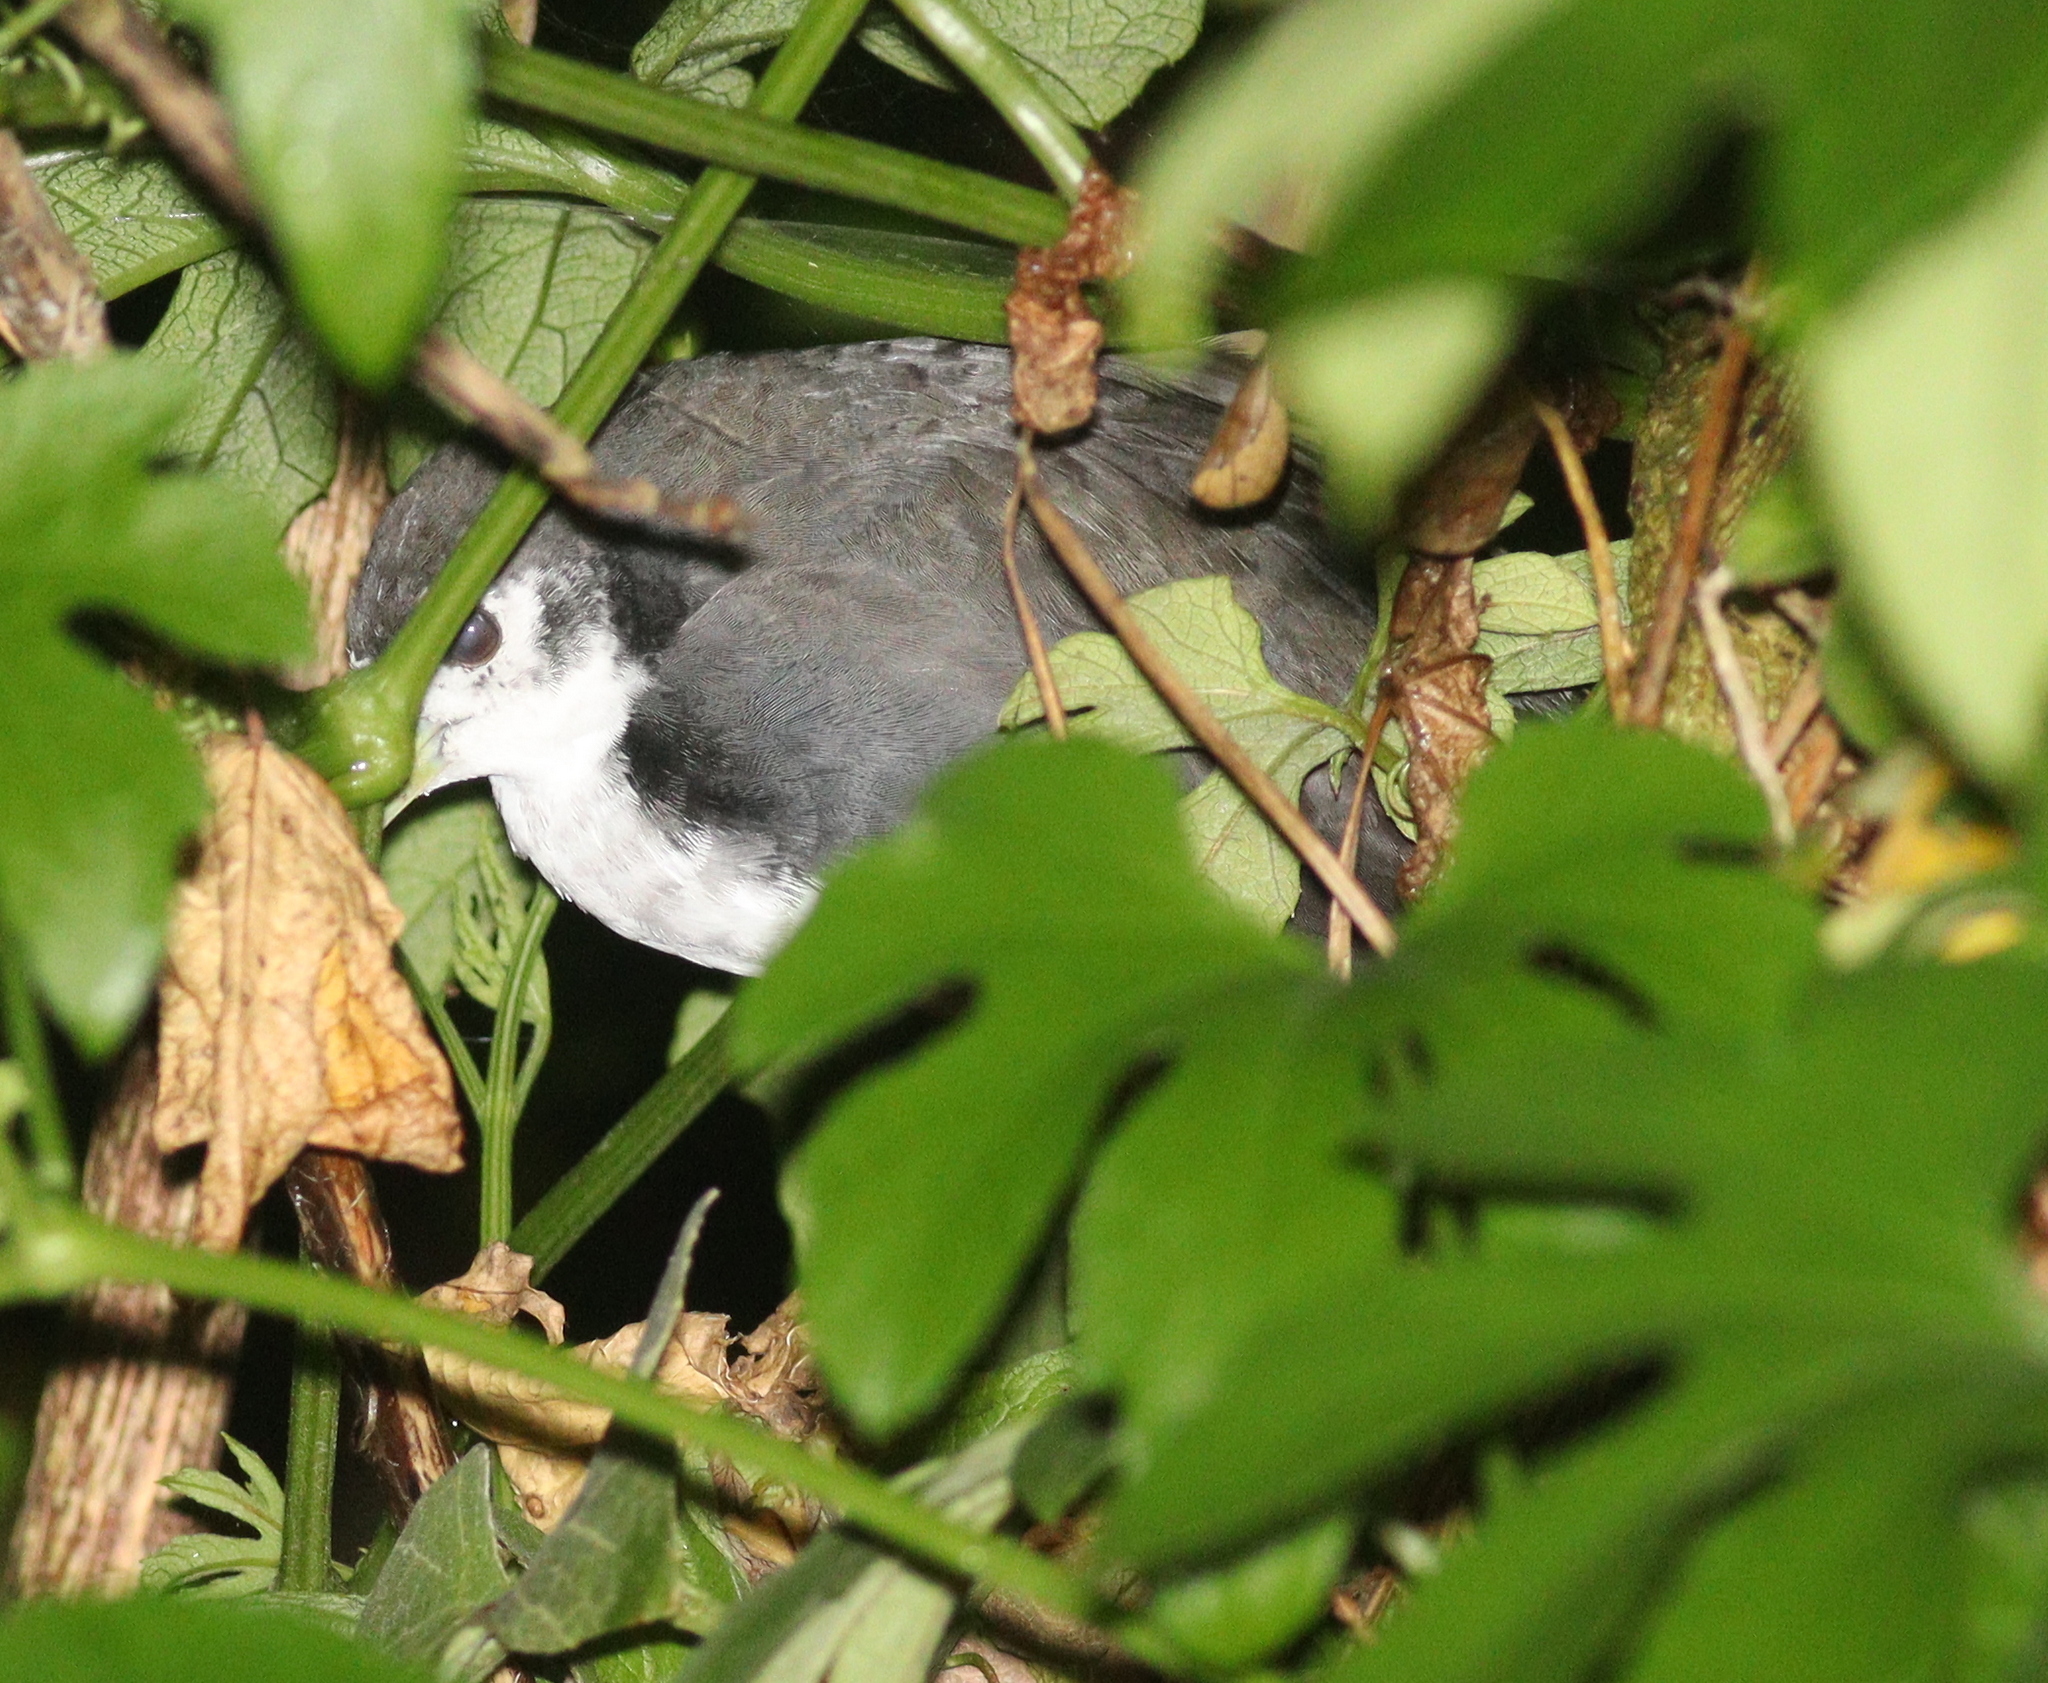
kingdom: Animalia
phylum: Chordata
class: Aves
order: Gruiformes
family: Rallidae
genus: Amaurornis
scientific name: Amaurornis phoenicurus
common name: White-breasted waterhen
